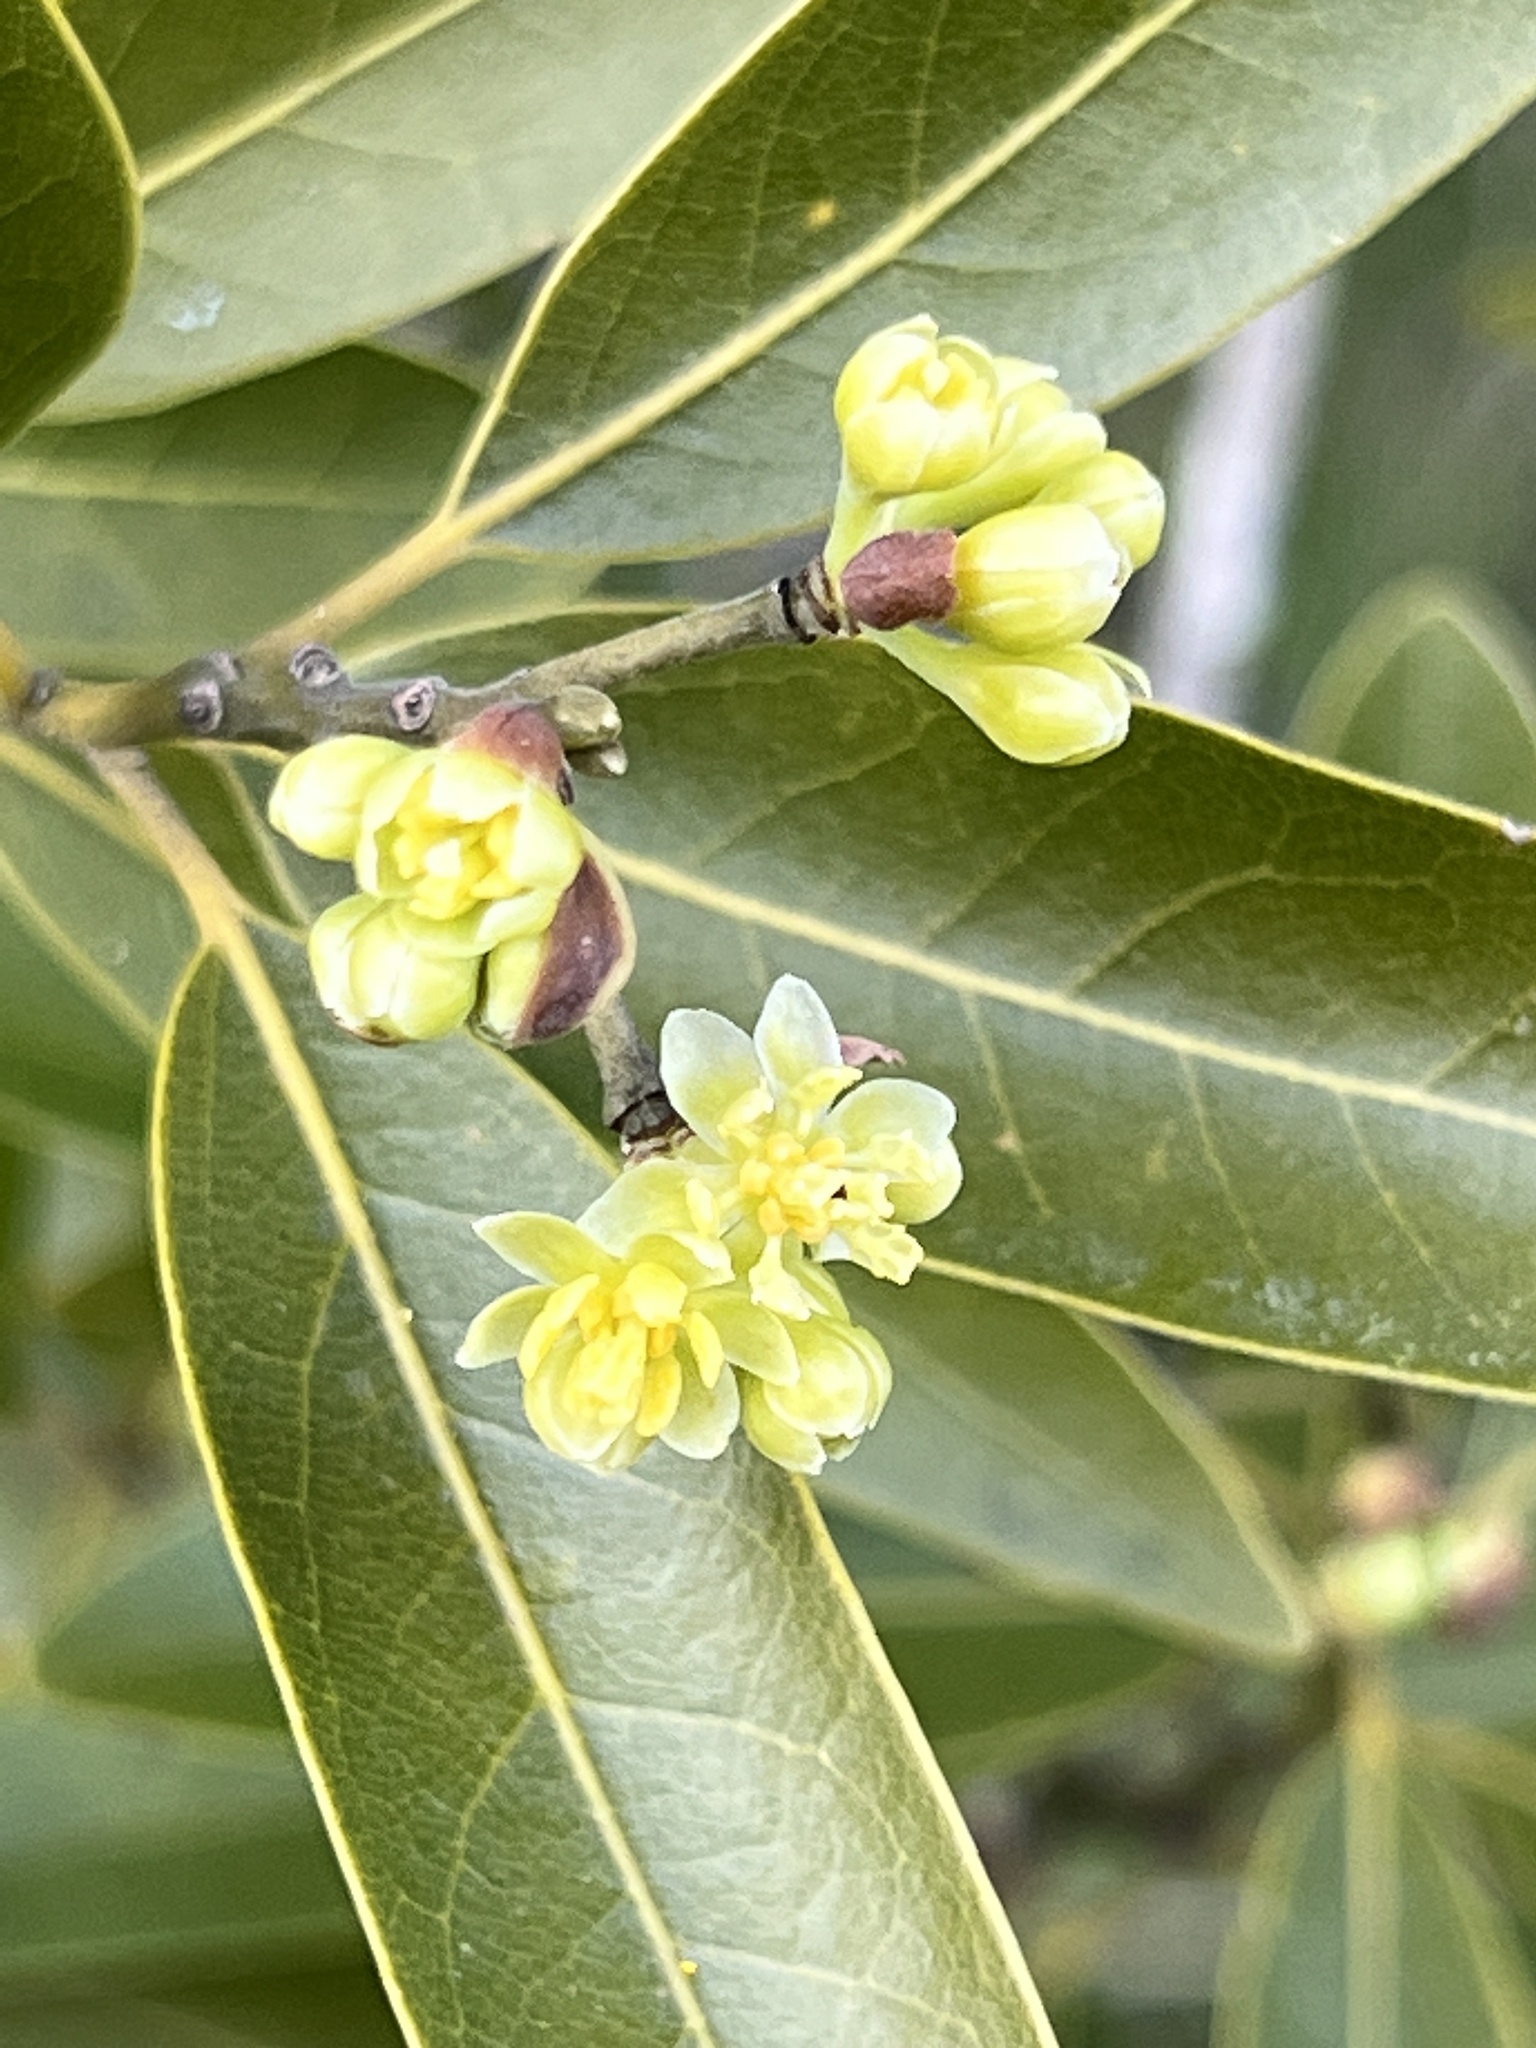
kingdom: Plantae
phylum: Tracheophyta
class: Magnoliopsida
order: Laurales
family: Lauraceae
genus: Umbellularia
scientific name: Umbellularia californica
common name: California bay
